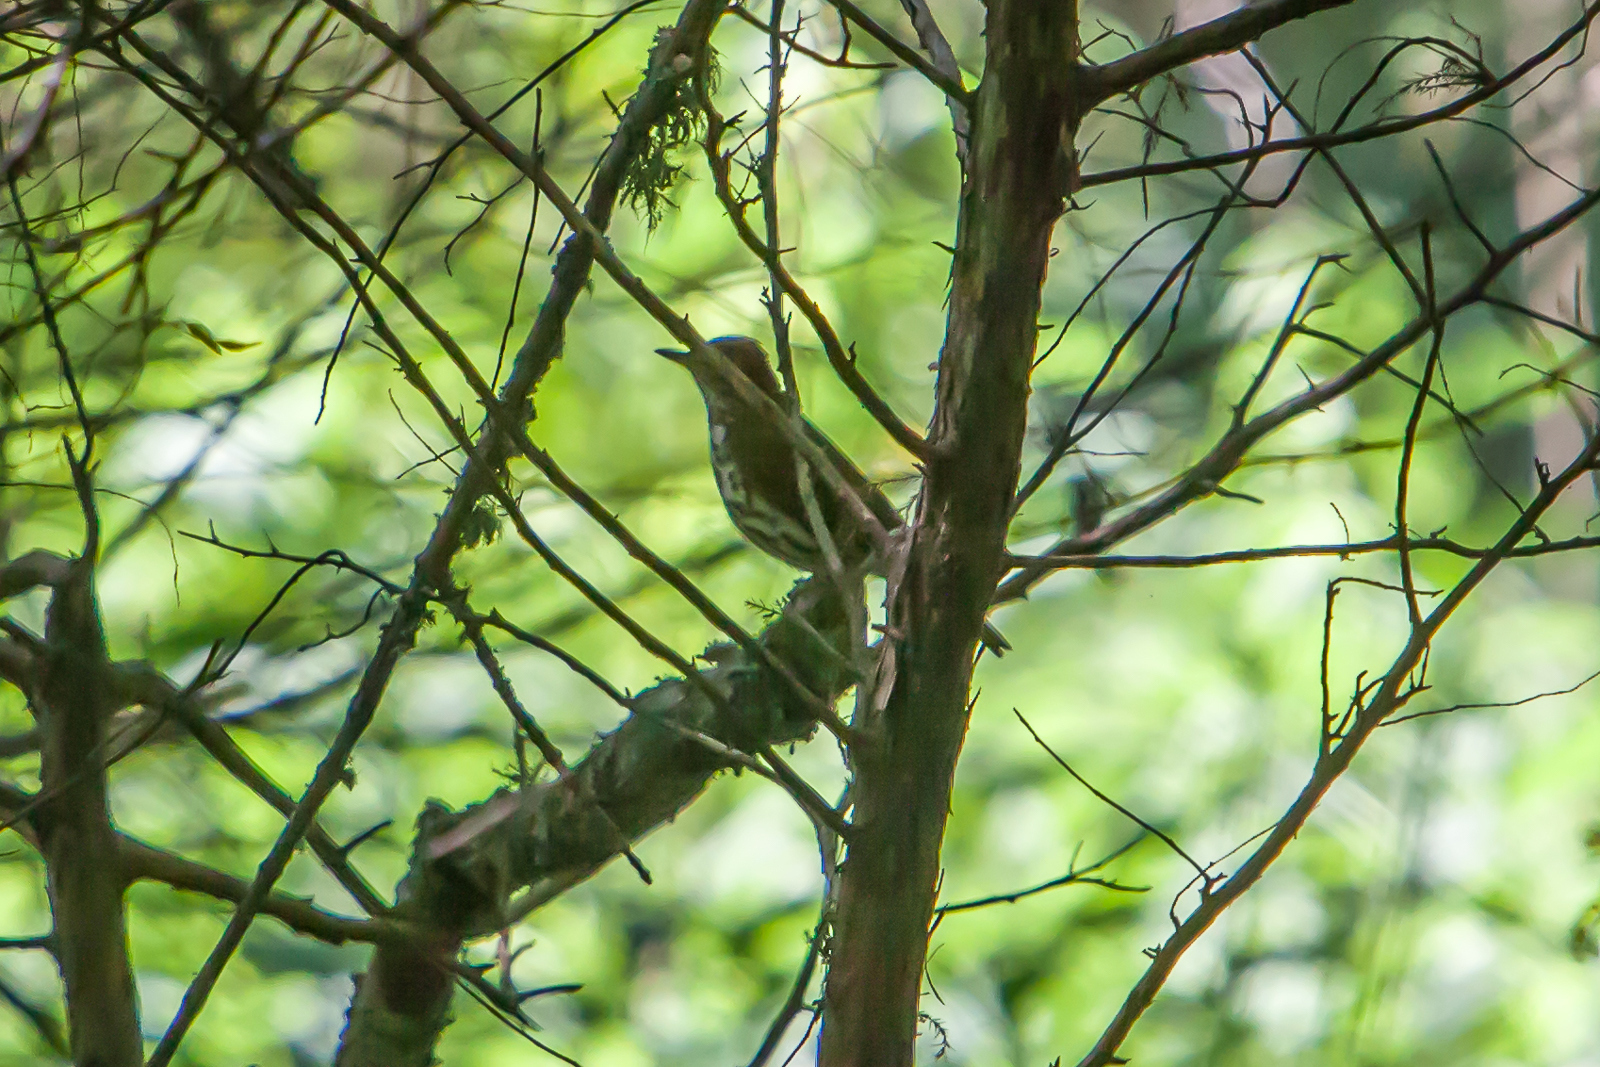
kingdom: Animalia
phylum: Chordata
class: Aves
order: Passeriformes
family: Turdidae
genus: Hylocichla
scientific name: Hylocichla mustelina
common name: Wood thrush
